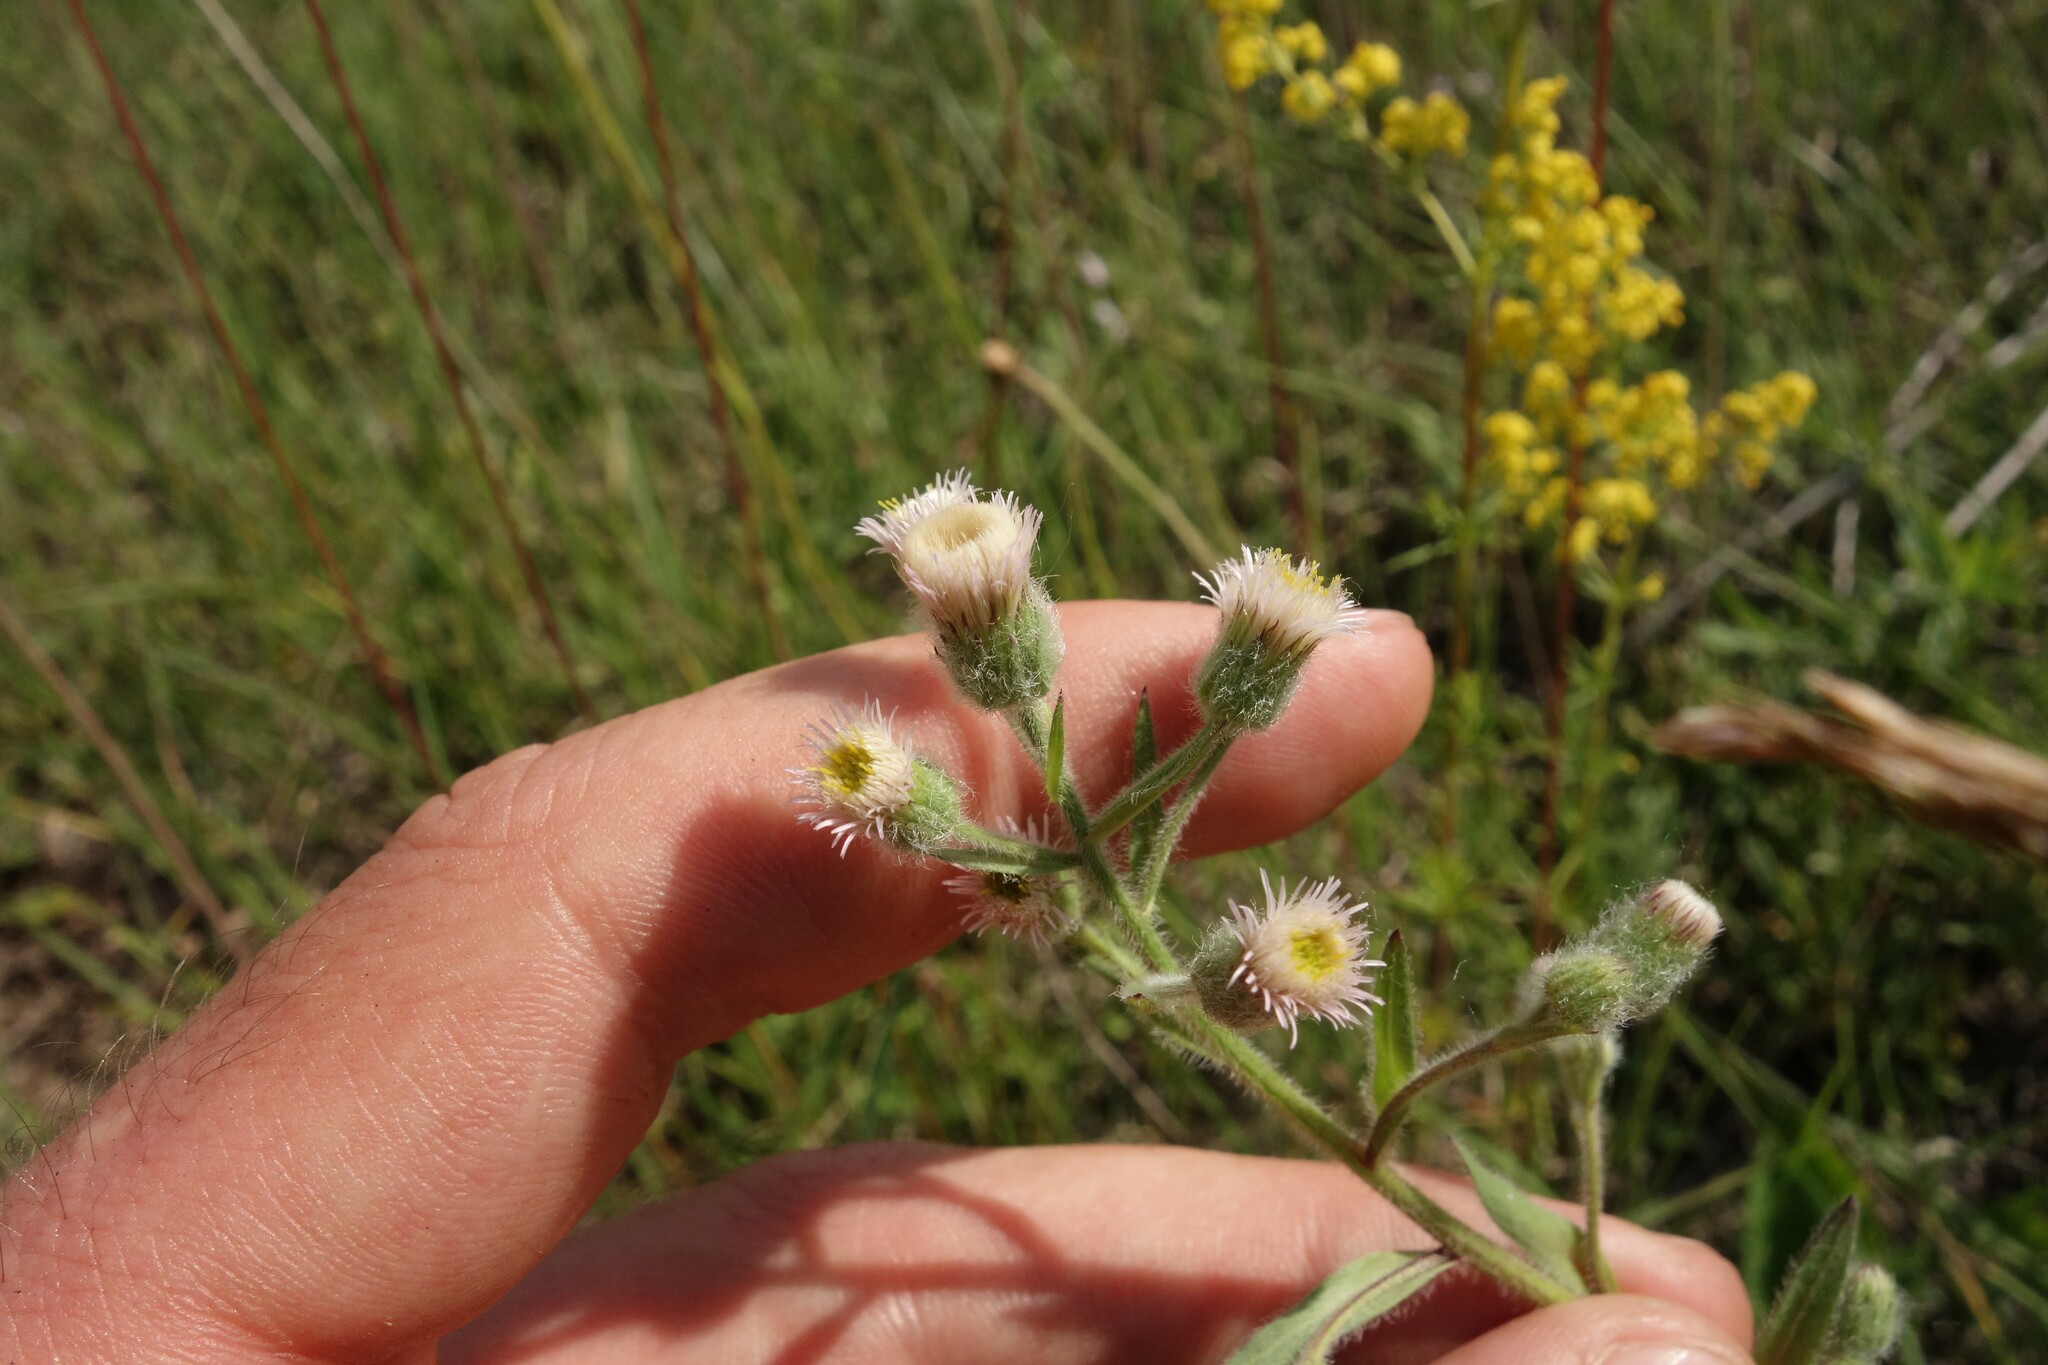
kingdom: Plantae
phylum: Tracheophyta
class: Magnoliopsida
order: Asterales
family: Asteraceae
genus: Erigeron
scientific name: Erigeron acris
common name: Blue fleabane
